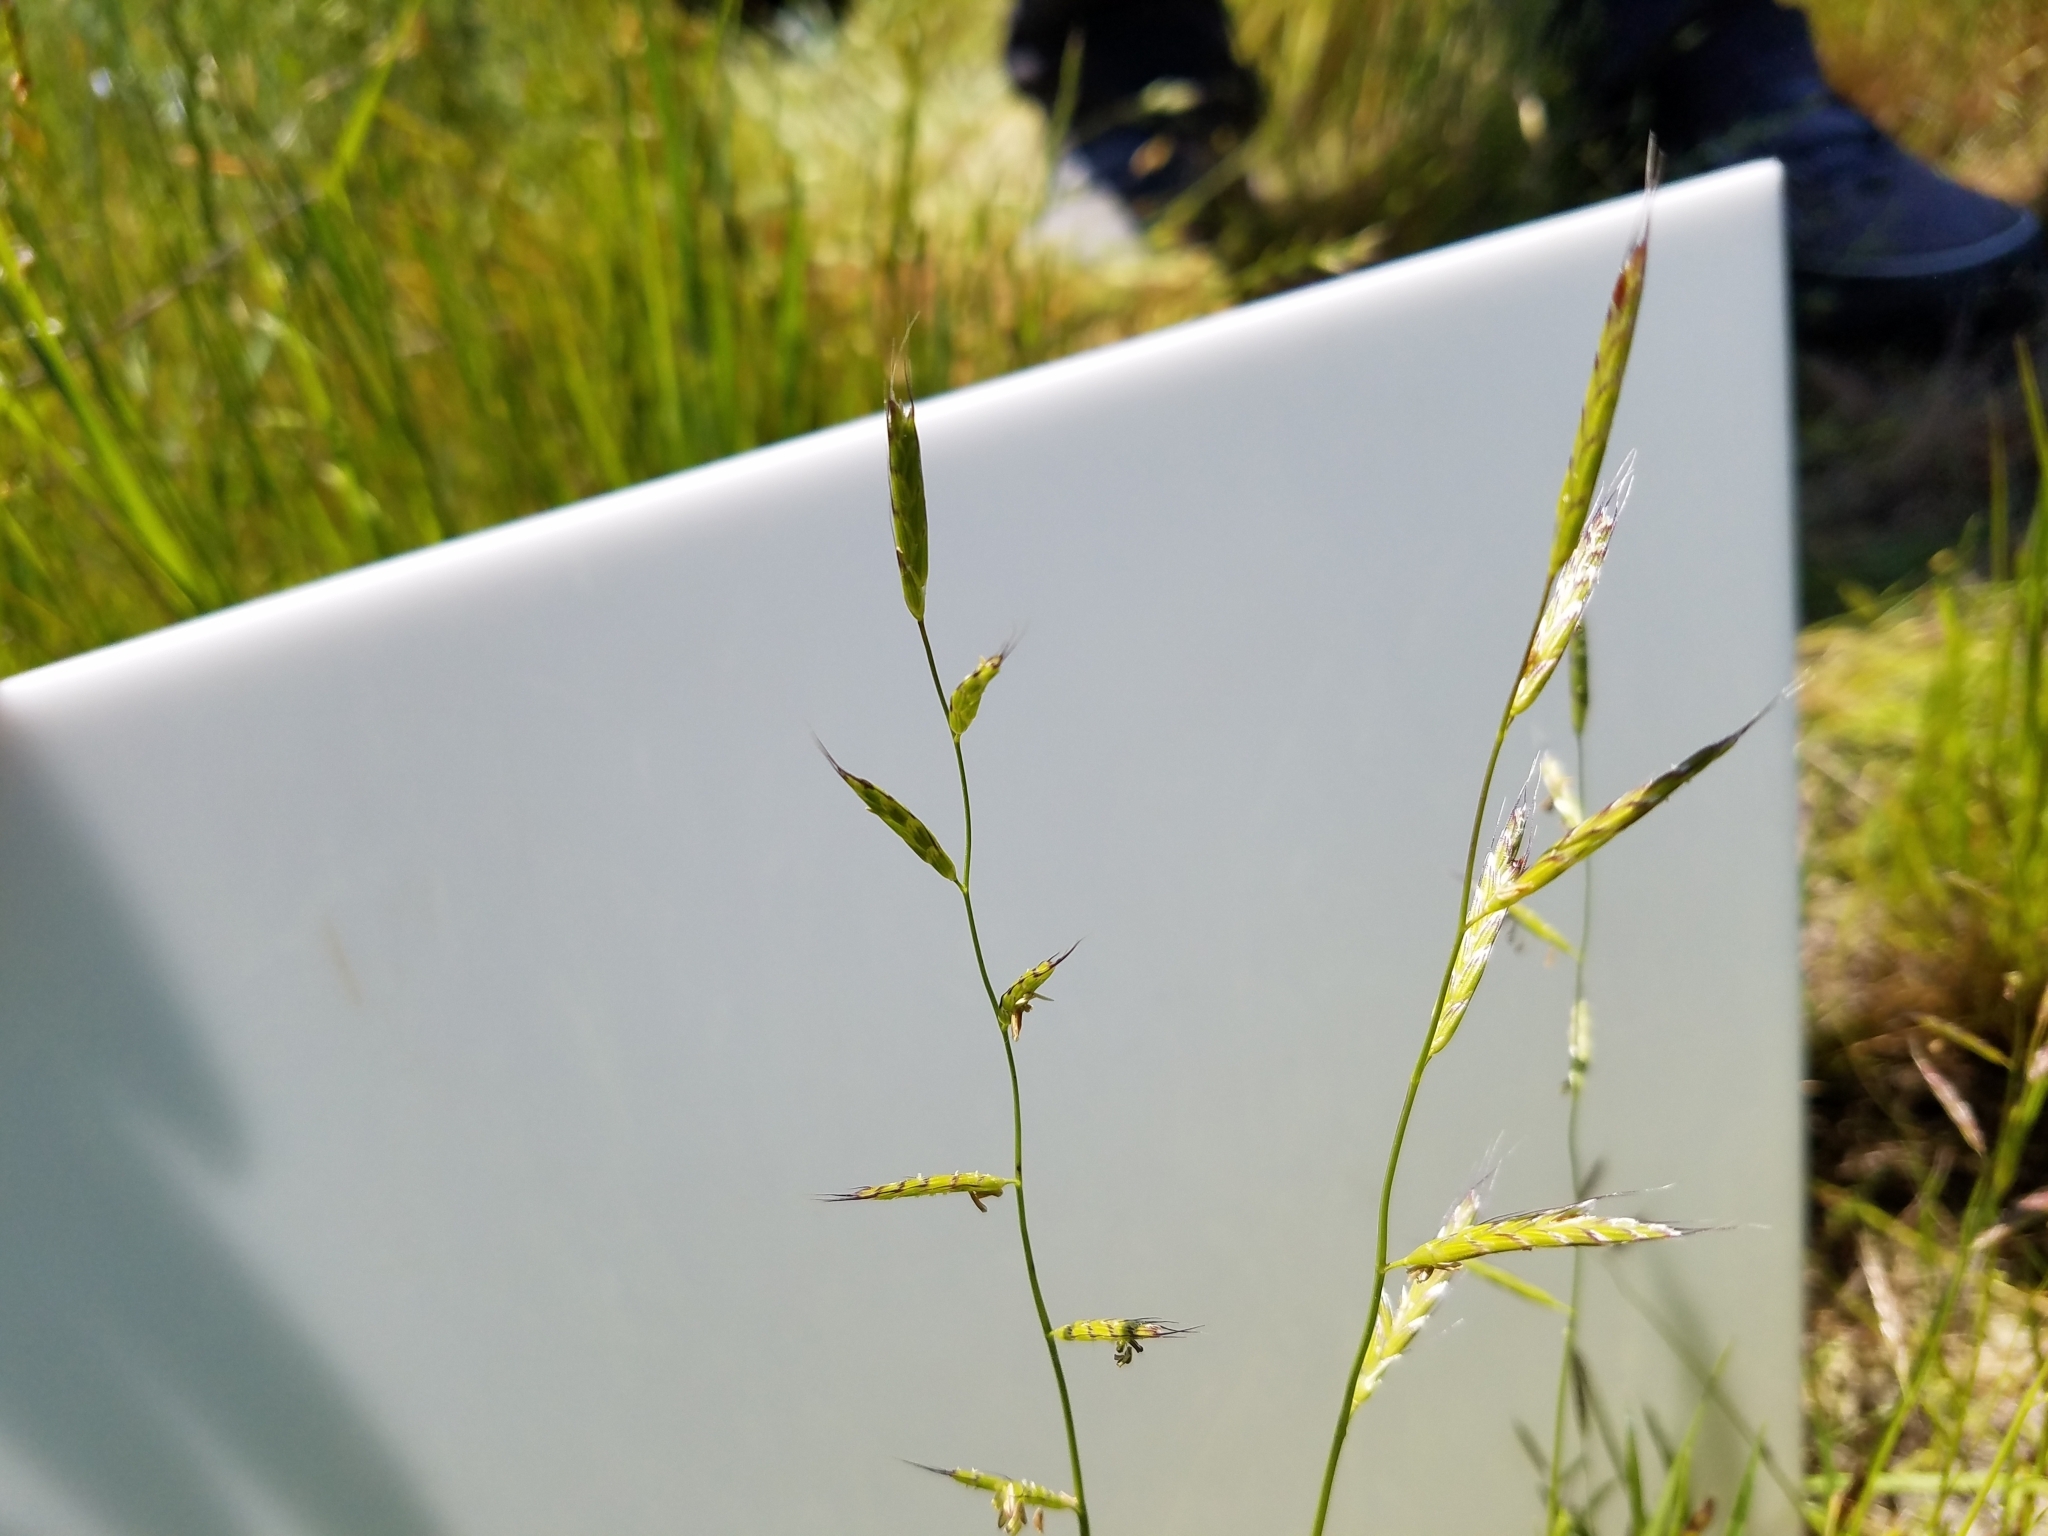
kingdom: Plantae
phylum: Tracheophyta
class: Liliopsida
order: Poales
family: Poaceae
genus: Pleuropogon
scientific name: Pleuropogon californicus
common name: California semaphore grass
